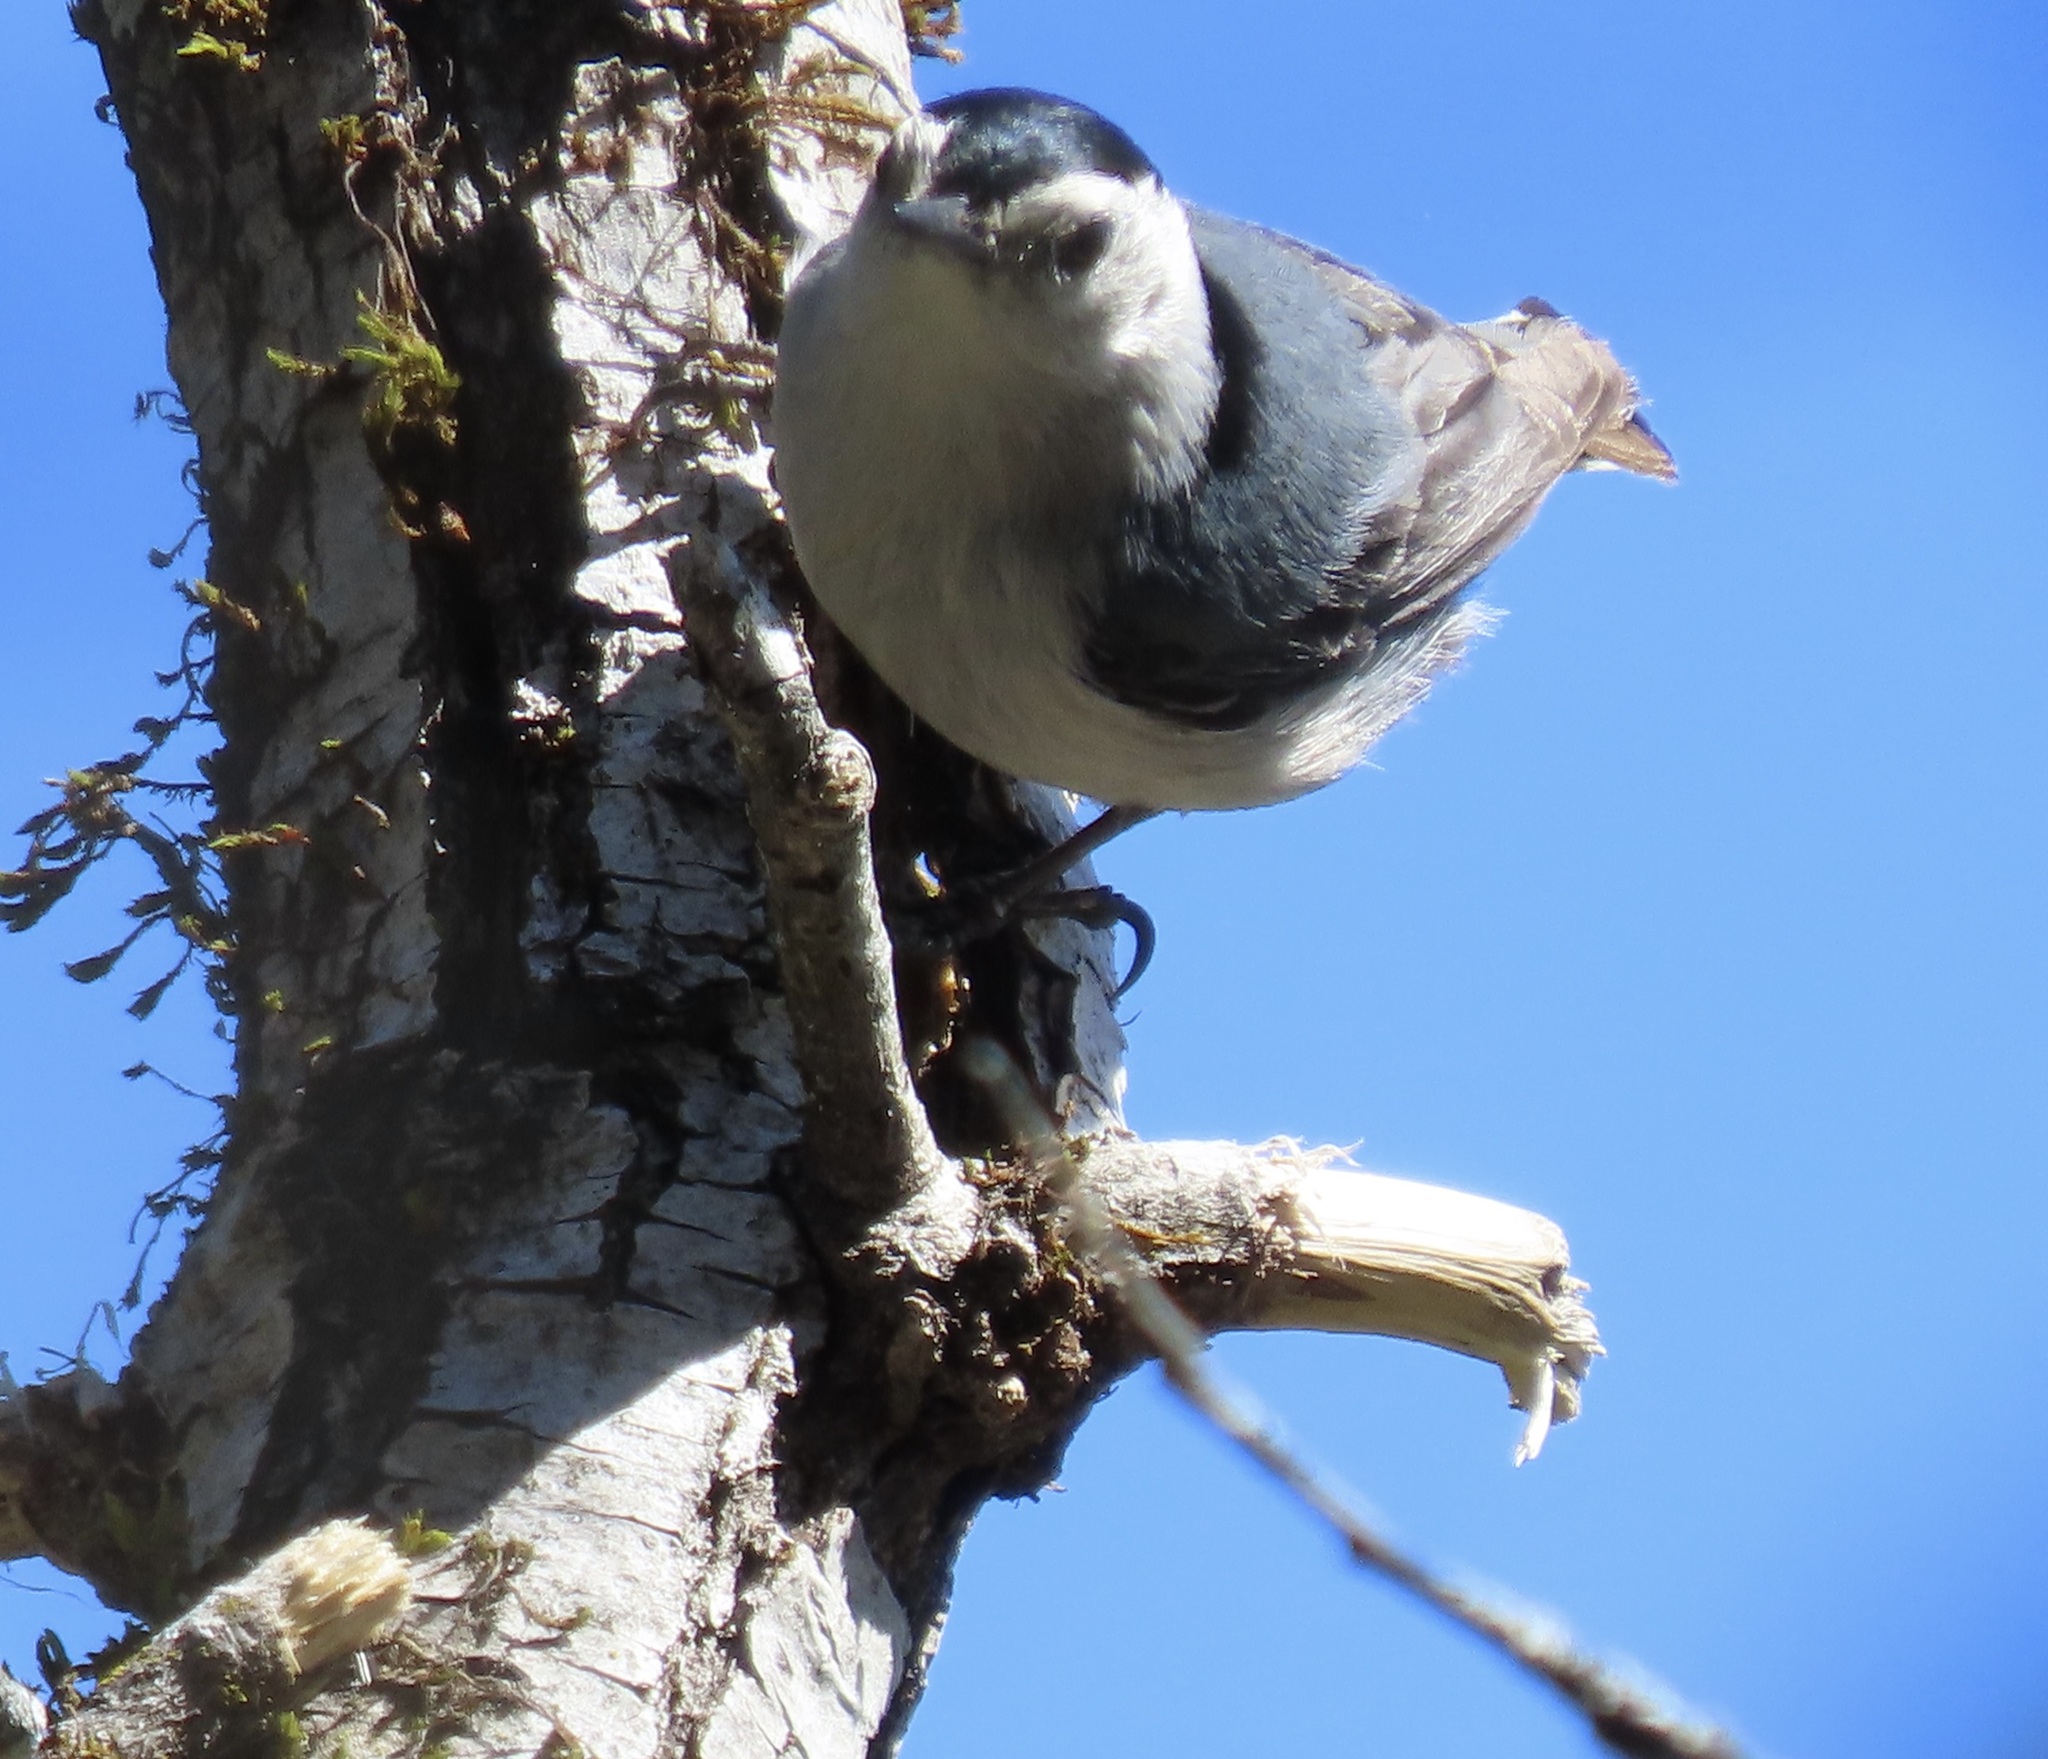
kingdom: Animalia
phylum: Chordata
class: Aves
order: Passeriformes
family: Sittidae
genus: Sitta
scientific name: Sitta carolinensis
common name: White-breasted nuthatch
